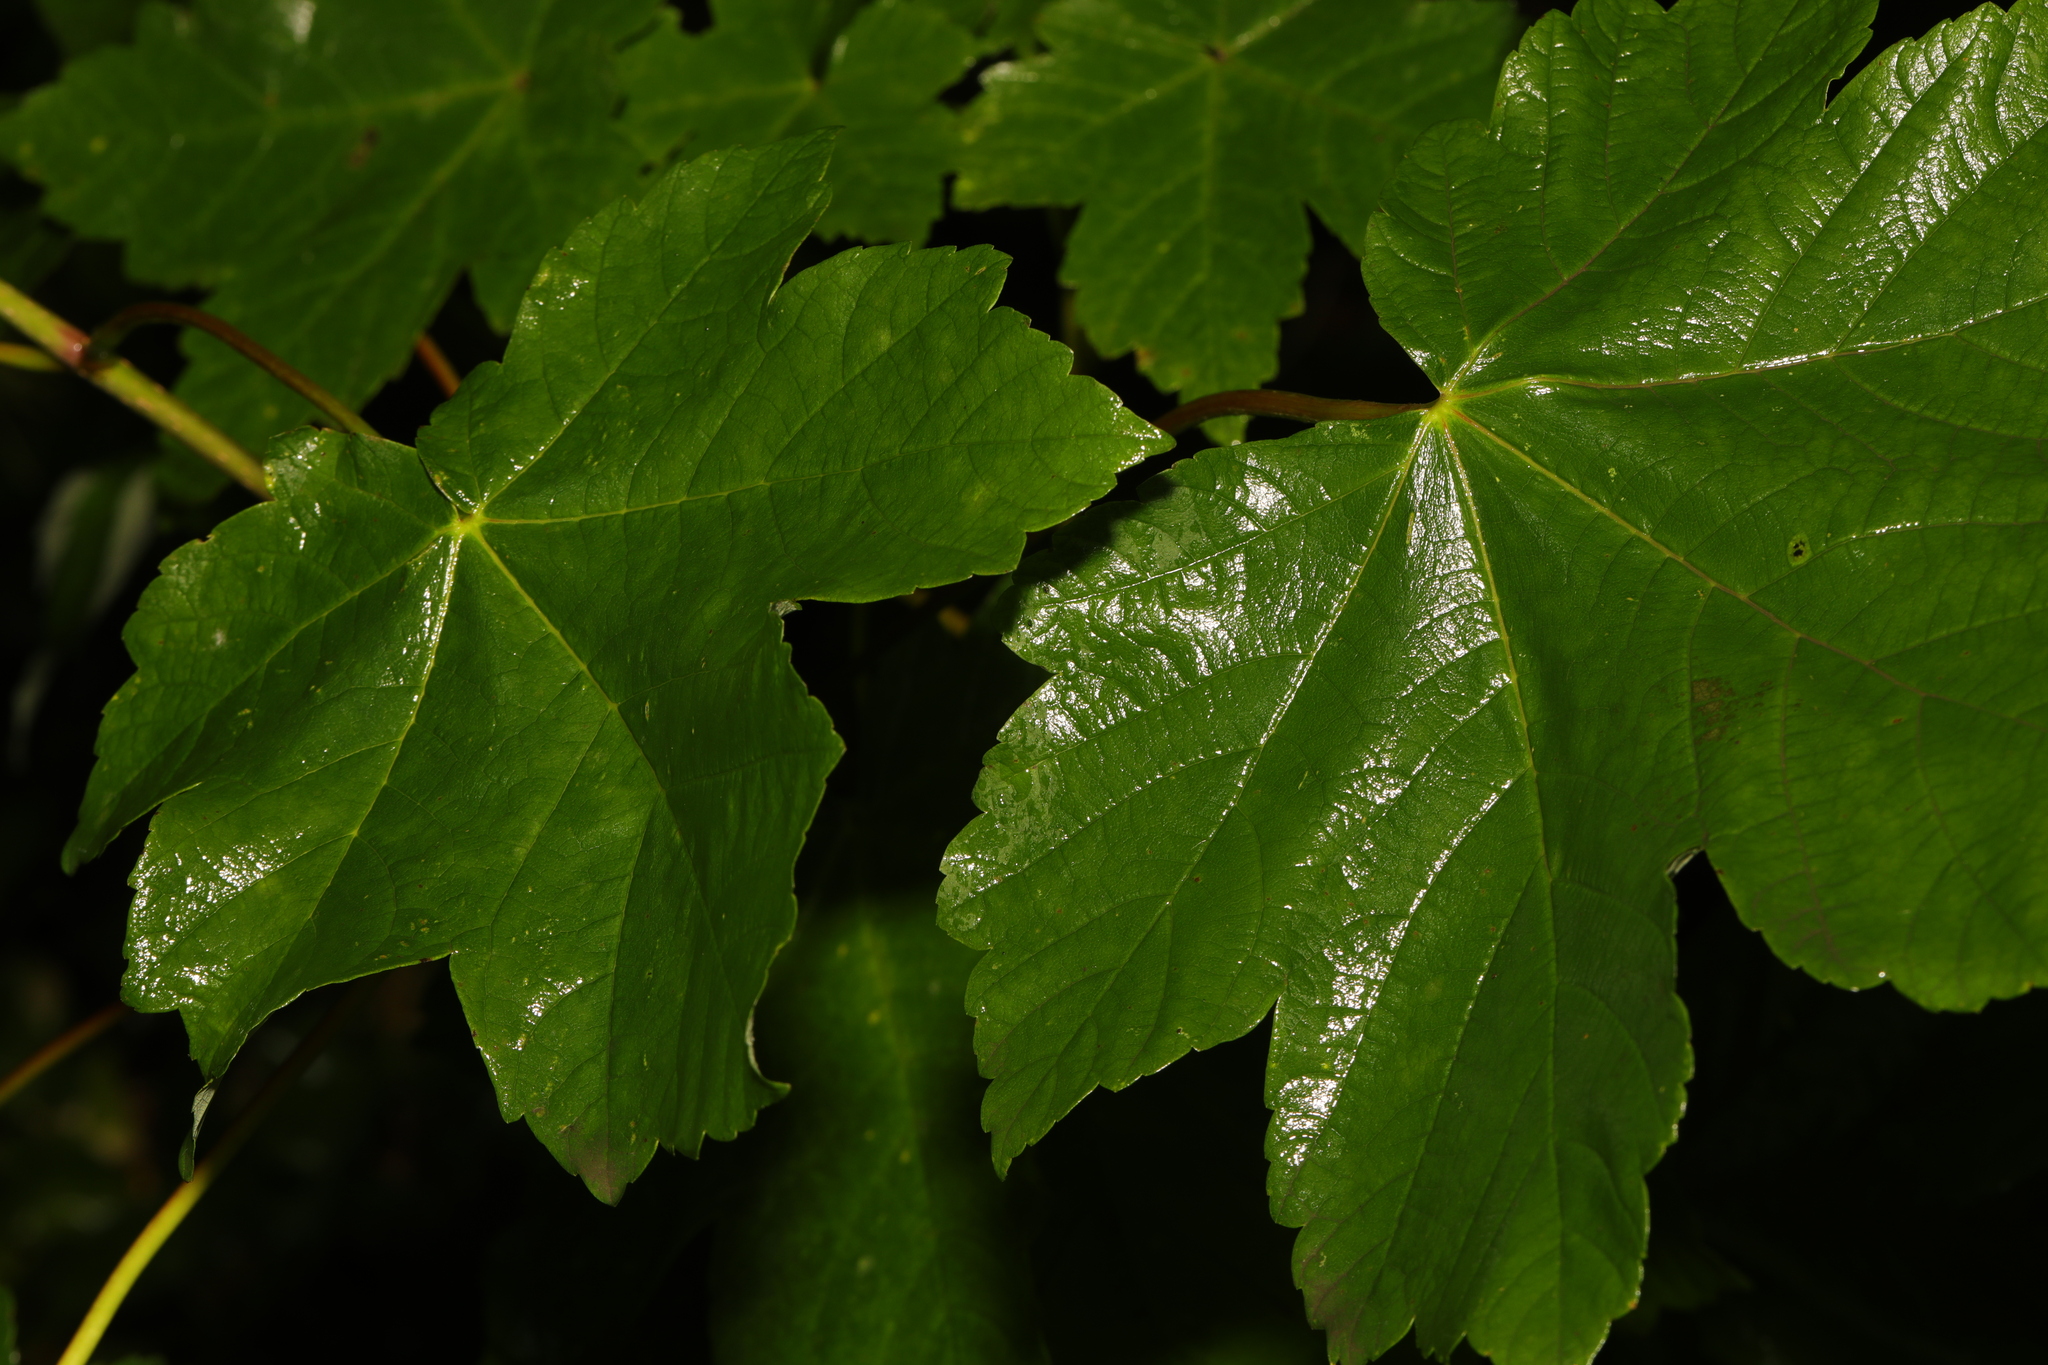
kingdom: Plantae
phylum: Tracheophyta
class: Magnoliopsida
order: Sapindales
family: Sapindaceae
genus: Acer
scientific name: Acer pseudoplatanus
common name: Sycamore
